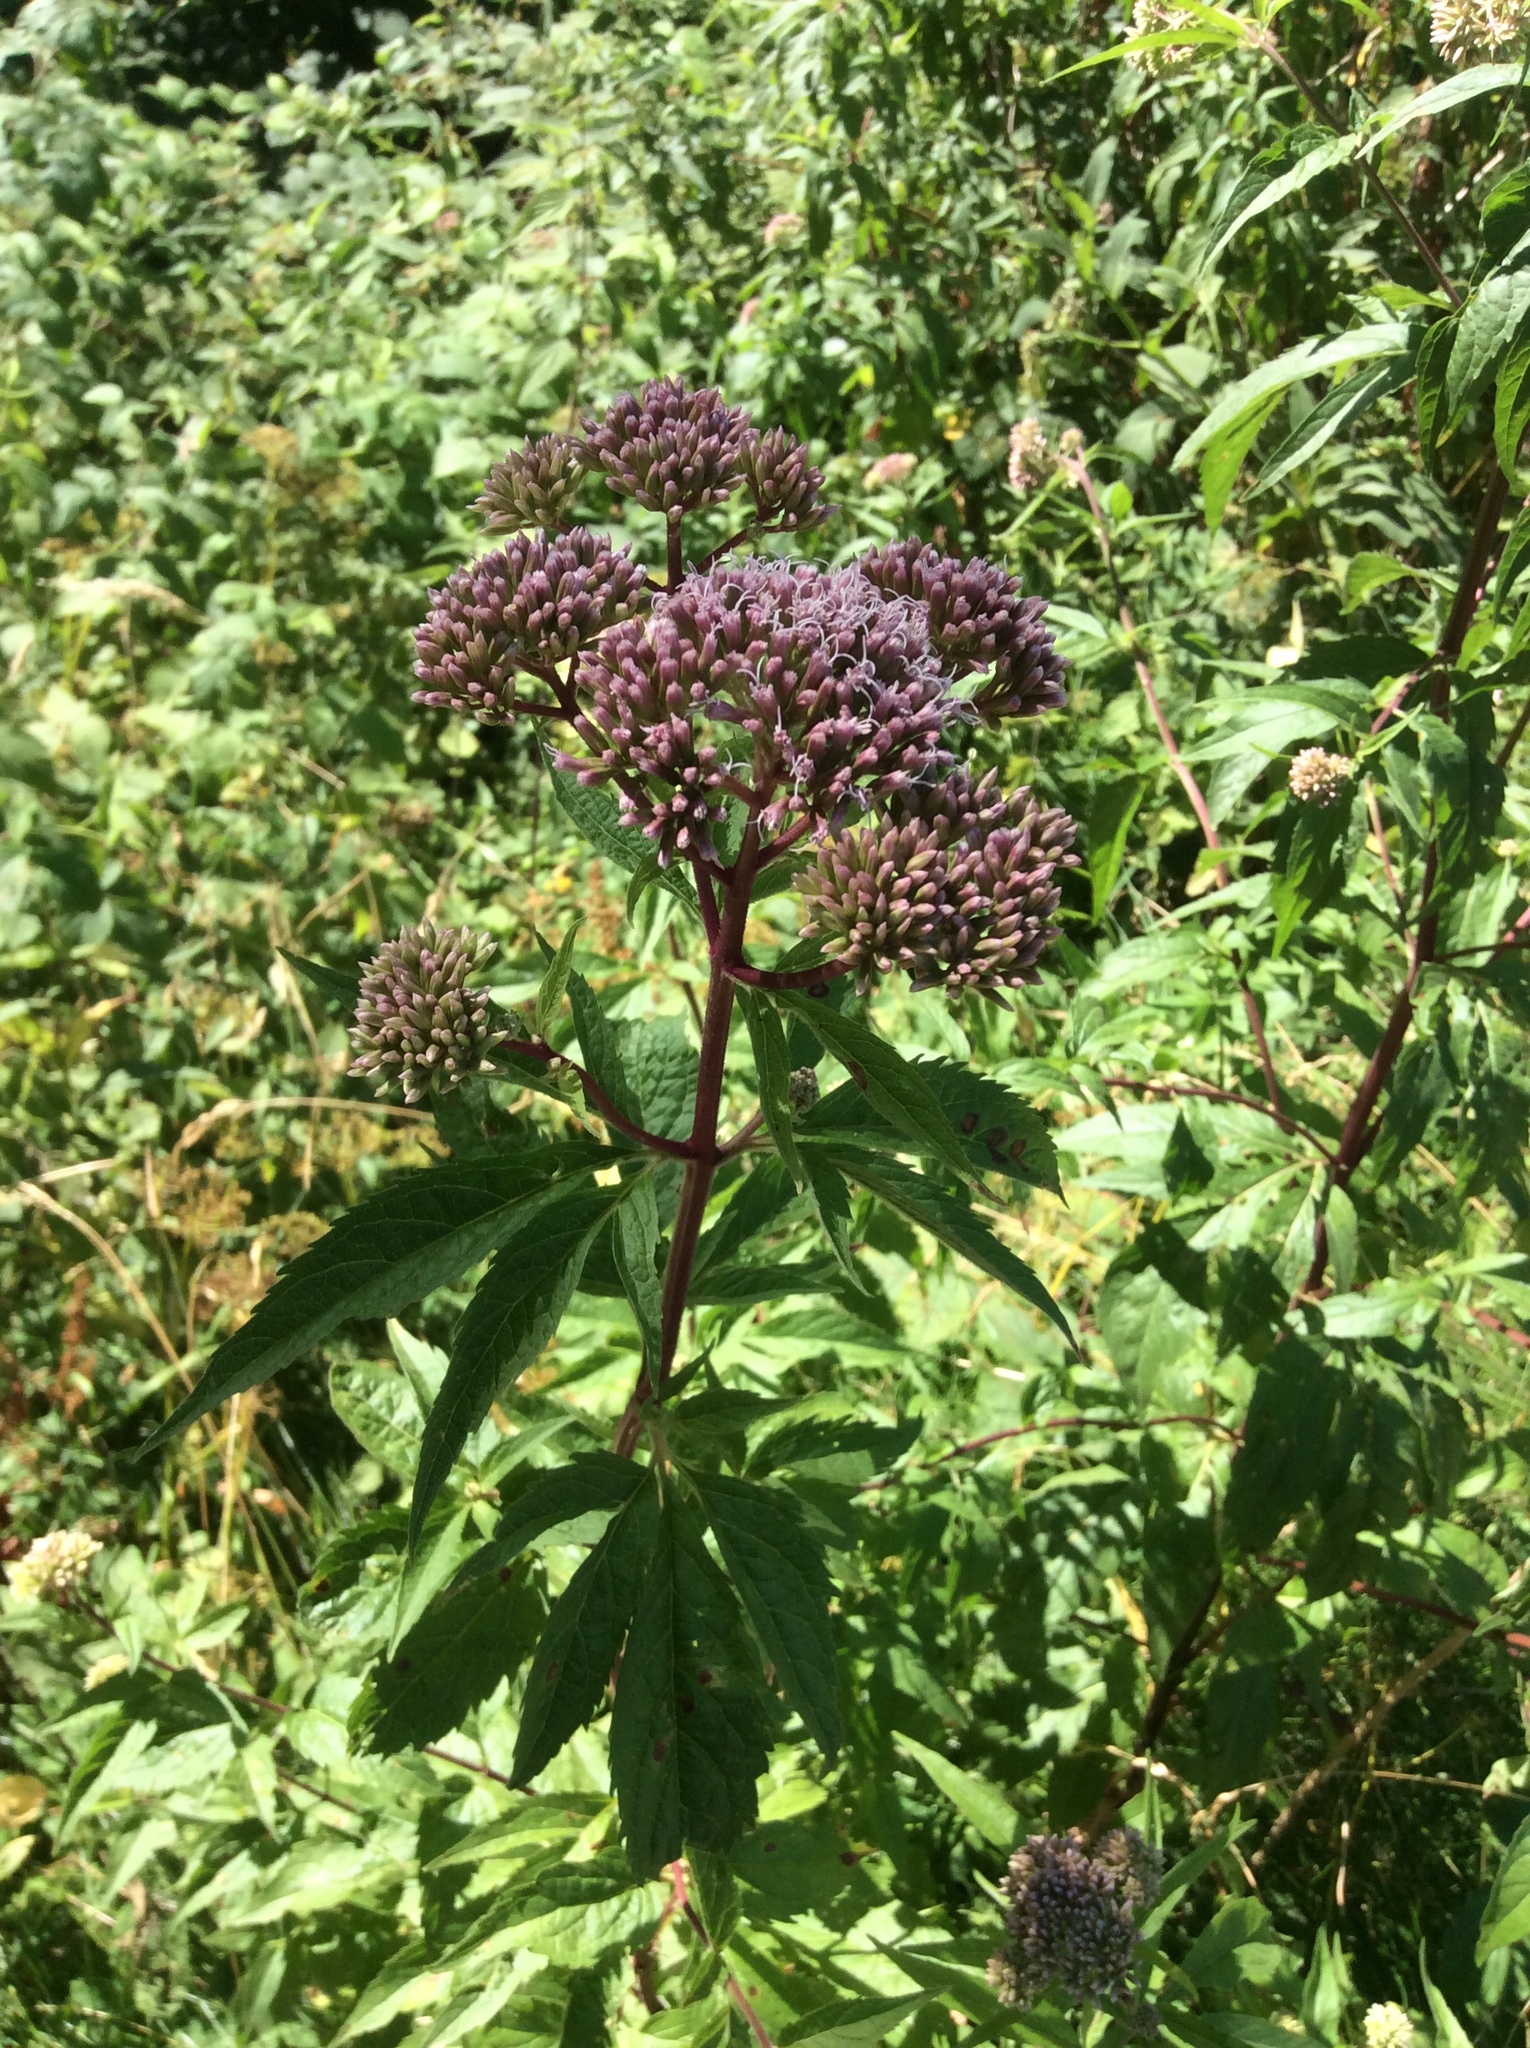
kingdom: Plantae
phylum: Tracheophyta
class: Magnoliopsida
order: Asterales
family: Asteraceae
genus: Eupatorium
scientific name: Eupatorium cannabinum
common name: Hemp-agrimony
